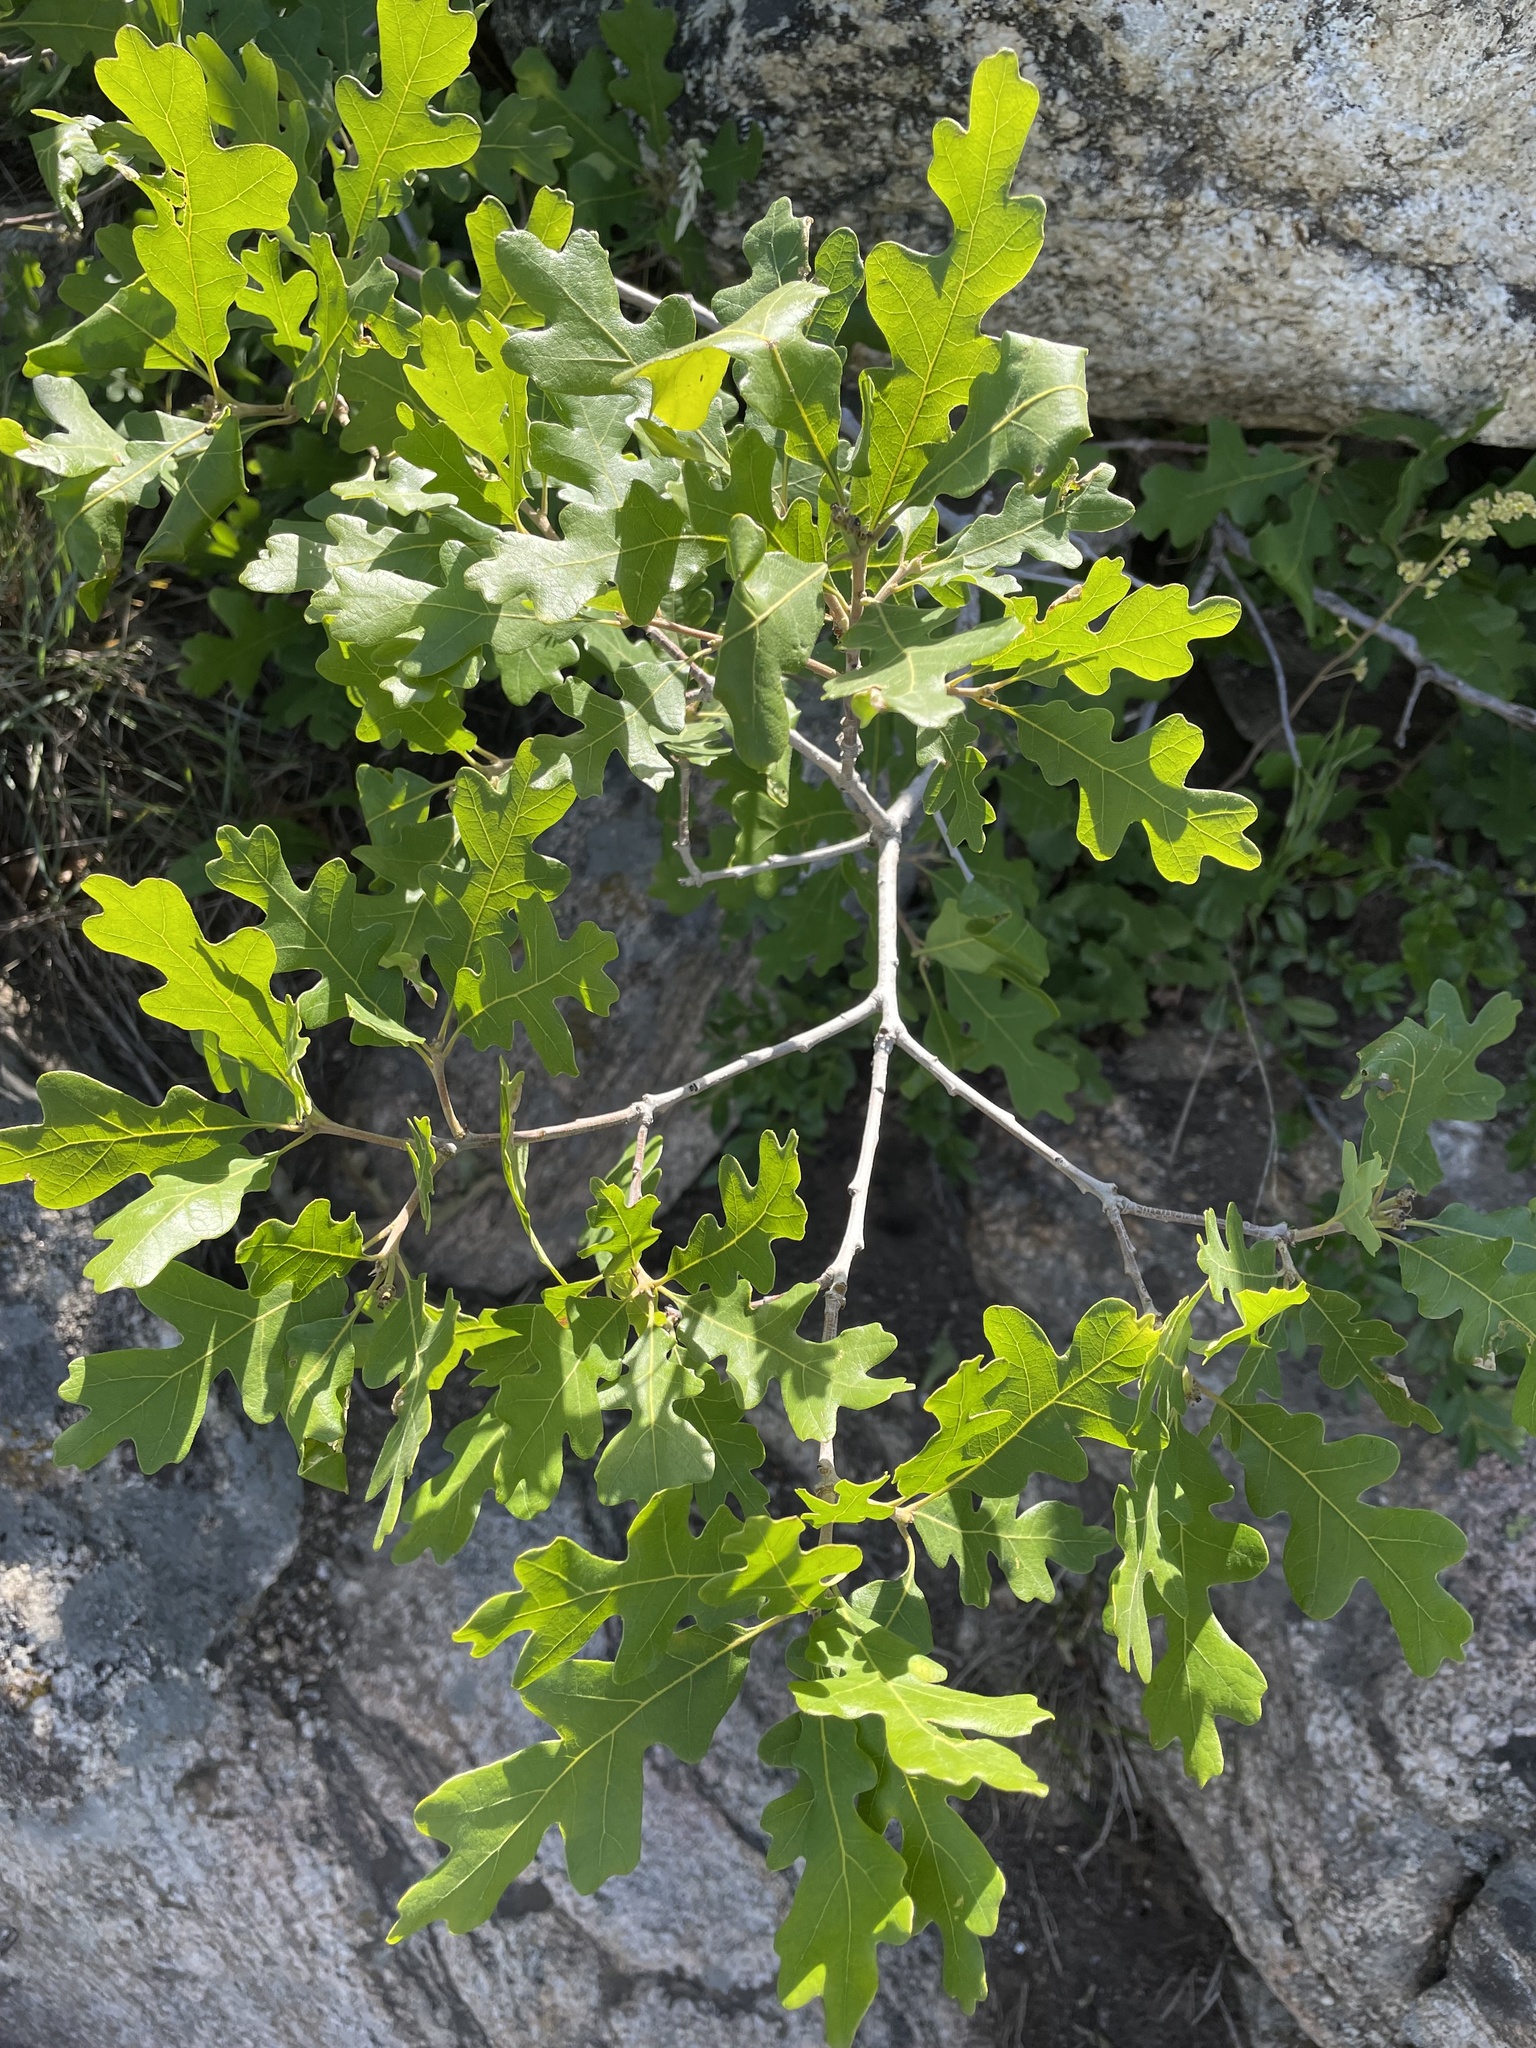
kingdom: Plantae
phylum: Tracheophyta
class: Magnoliopsida
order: Fagales
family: Fagaceae
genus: Quercus
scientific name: Quercus gambelii
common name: Gambel oak
